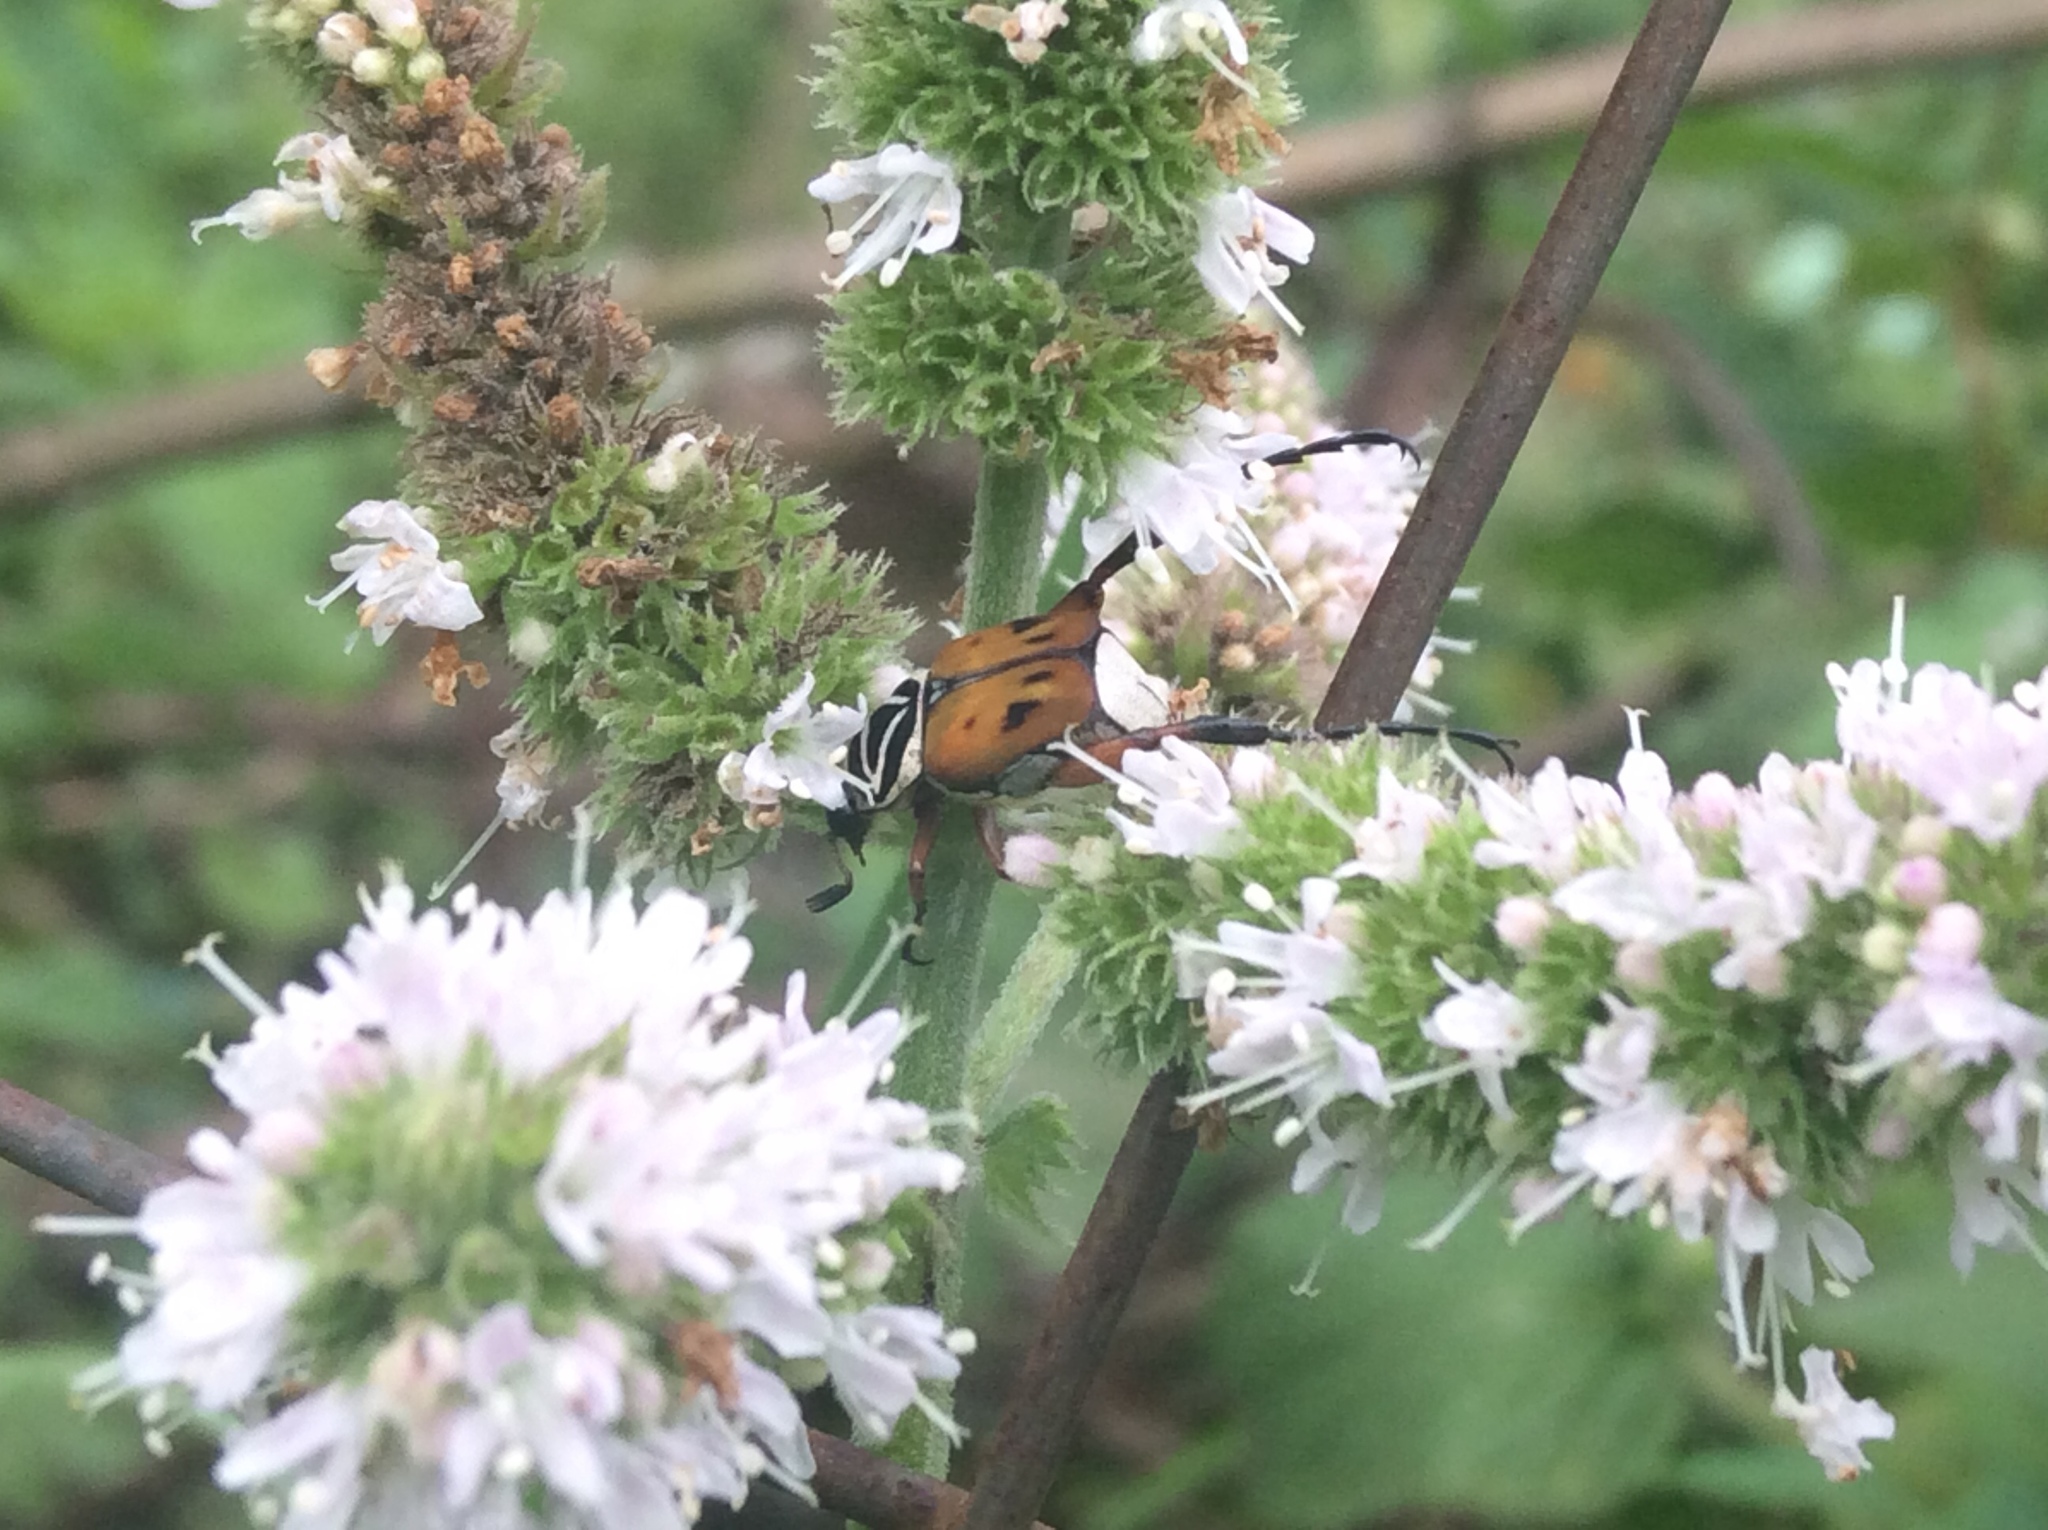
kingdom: Animalia
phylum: Arthropoda
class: Insecta
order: Coleoptera
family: Scarabaeidae
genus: Trigonopeltastes
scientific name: Trigonopeltastes delta
